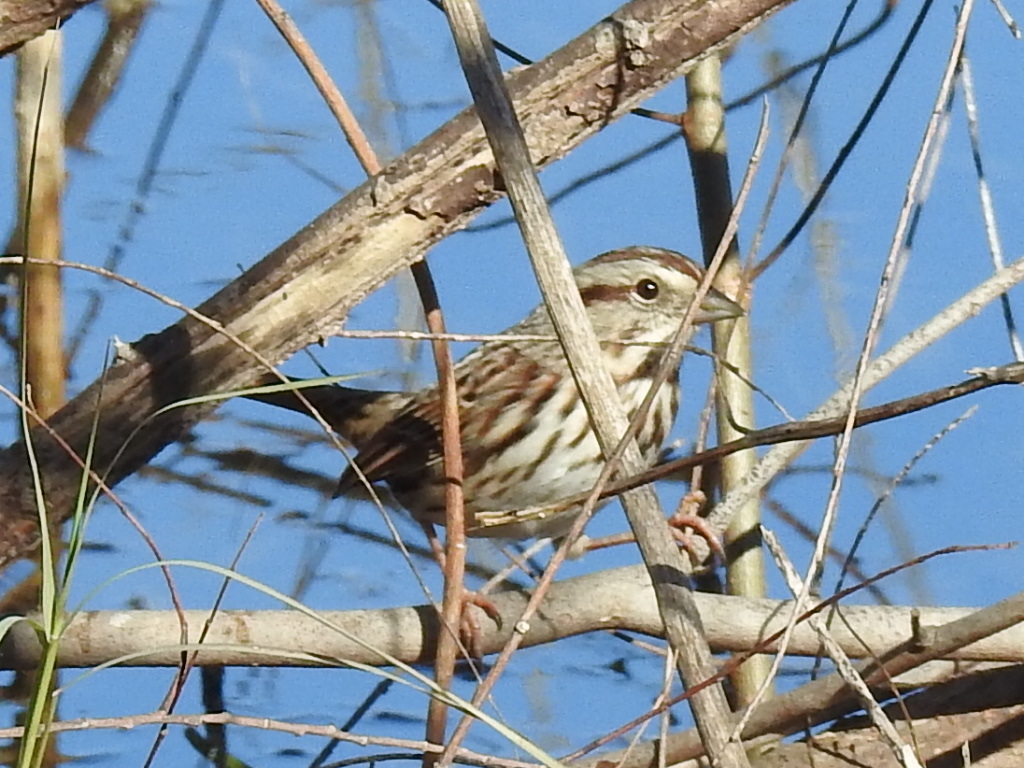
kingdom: Animalia
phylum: Chordata
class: Aves
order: Passeriformes
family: Passerellidae
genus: Melospiza
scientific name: Melospiza melodia
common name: Song sparrow
